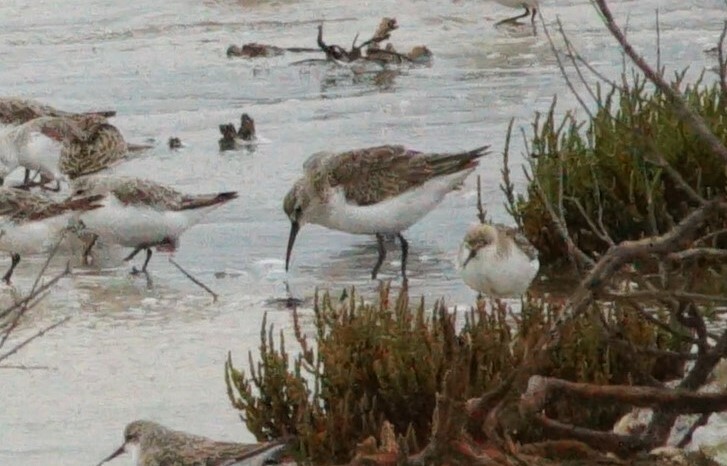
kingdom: Animalia
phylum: Chordata
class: Aves
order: Charadriiformes
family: Scolopacidae
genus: Calidris
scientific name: Calidris ferruginea
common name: Curlew sandpiper
